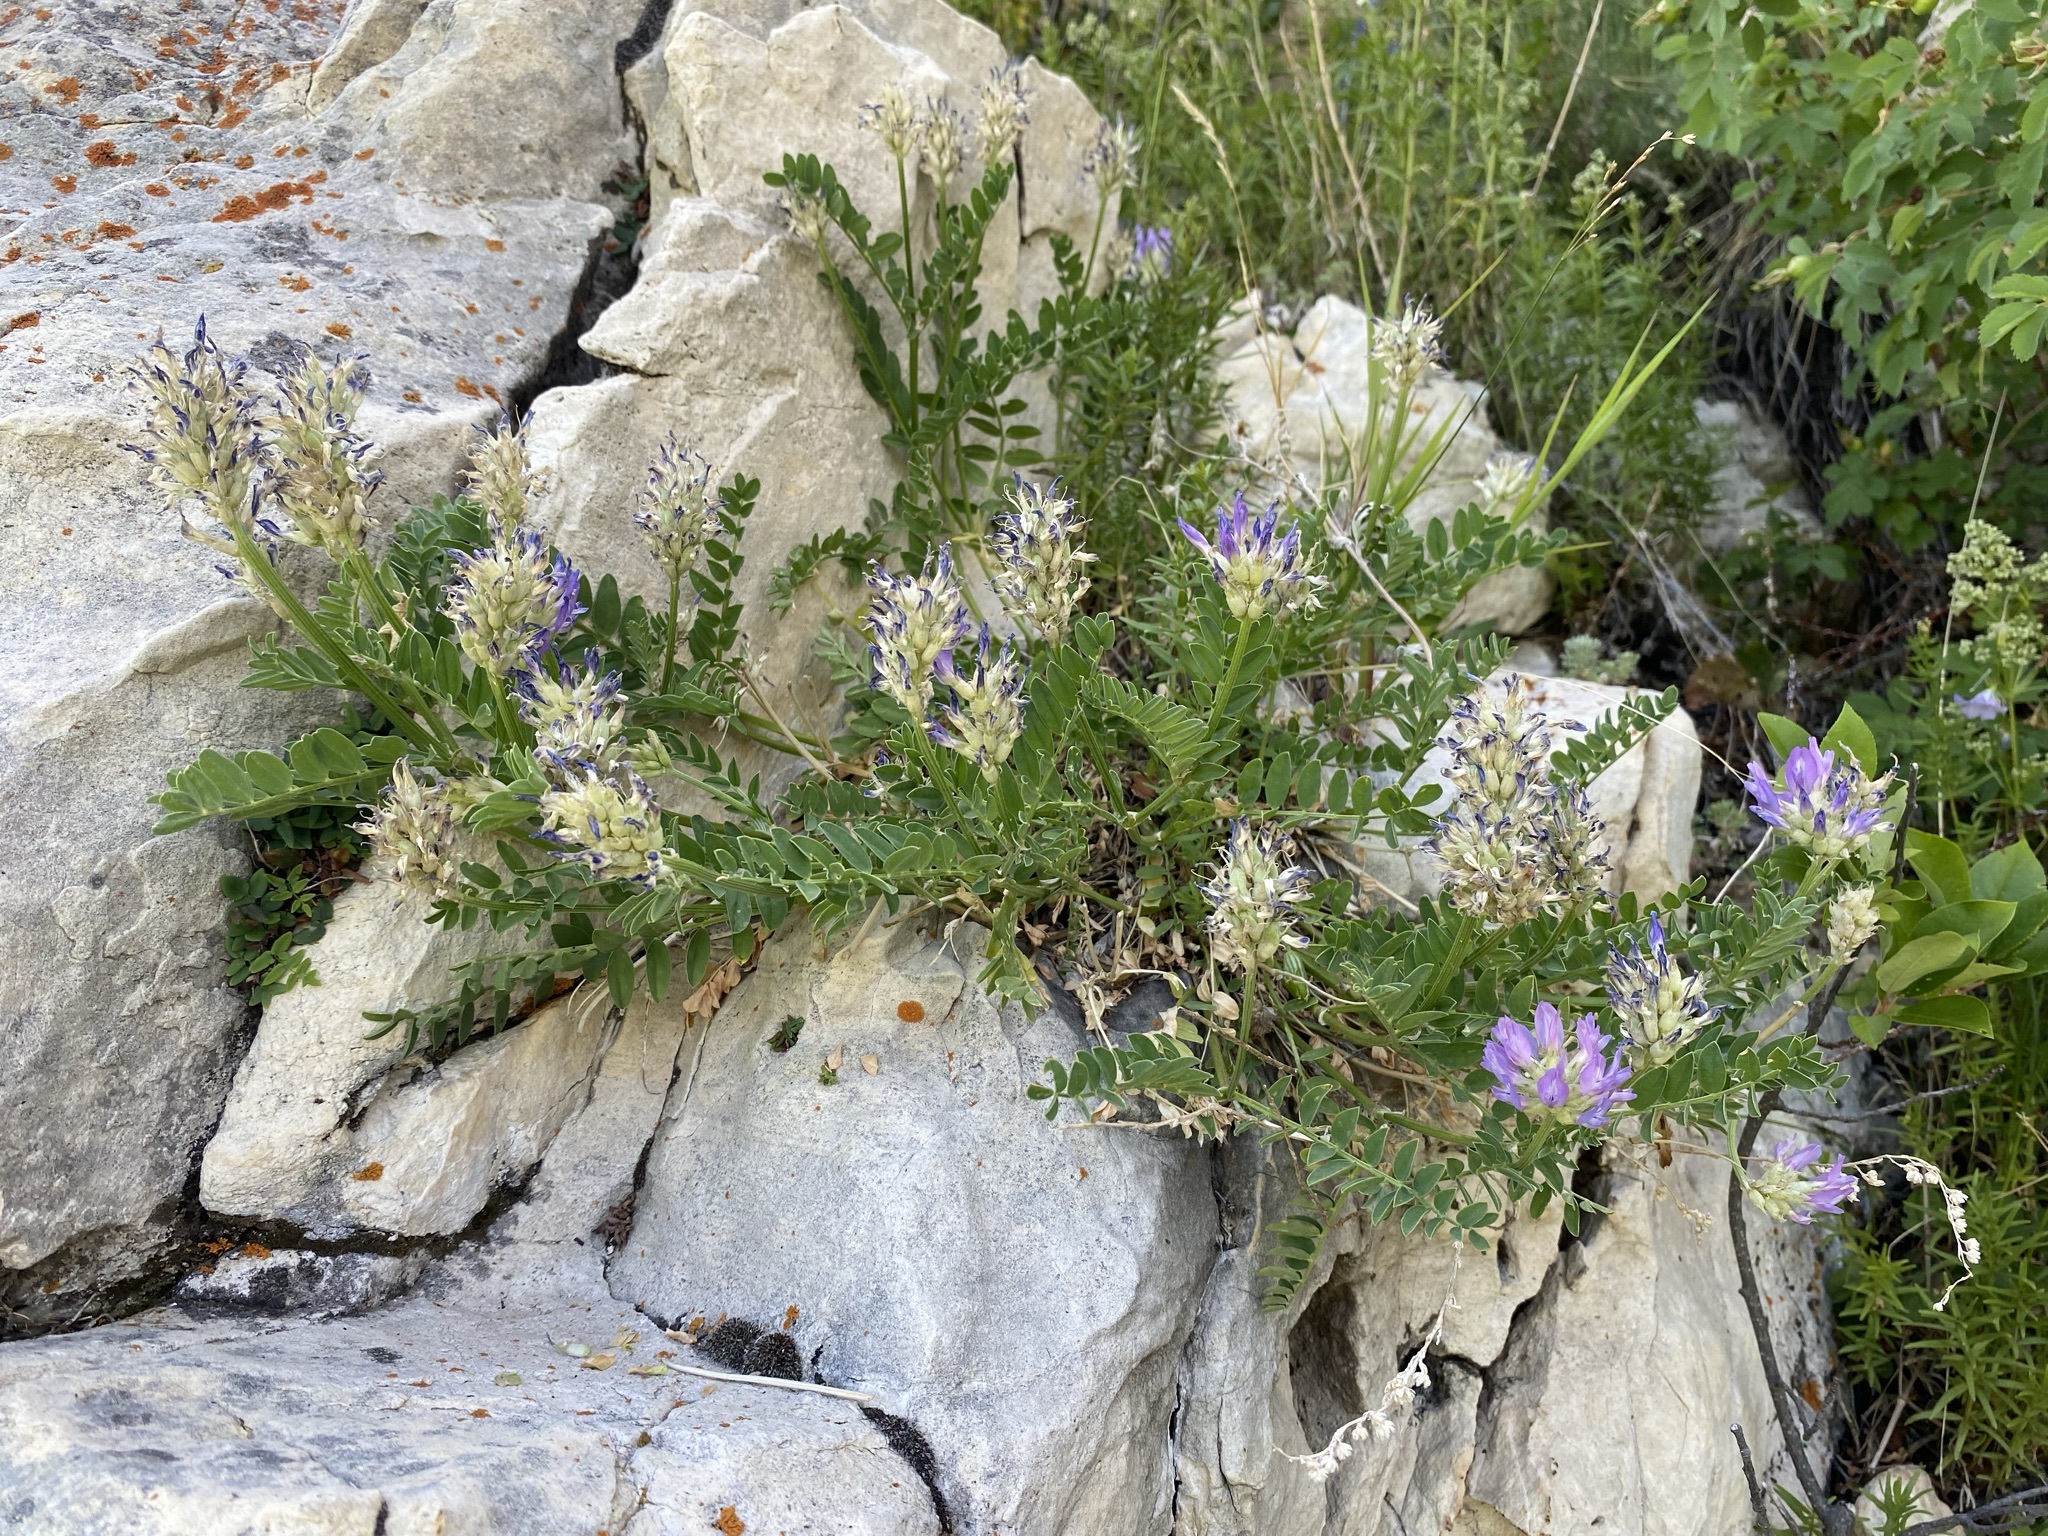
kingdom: Plantae
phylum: Tracheophyta
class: Magnoliopsida
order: Fabales
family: Fabaceae
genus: Astragalus
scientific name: Astragalus laxmannii
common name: Laxmann's milk-vetch
